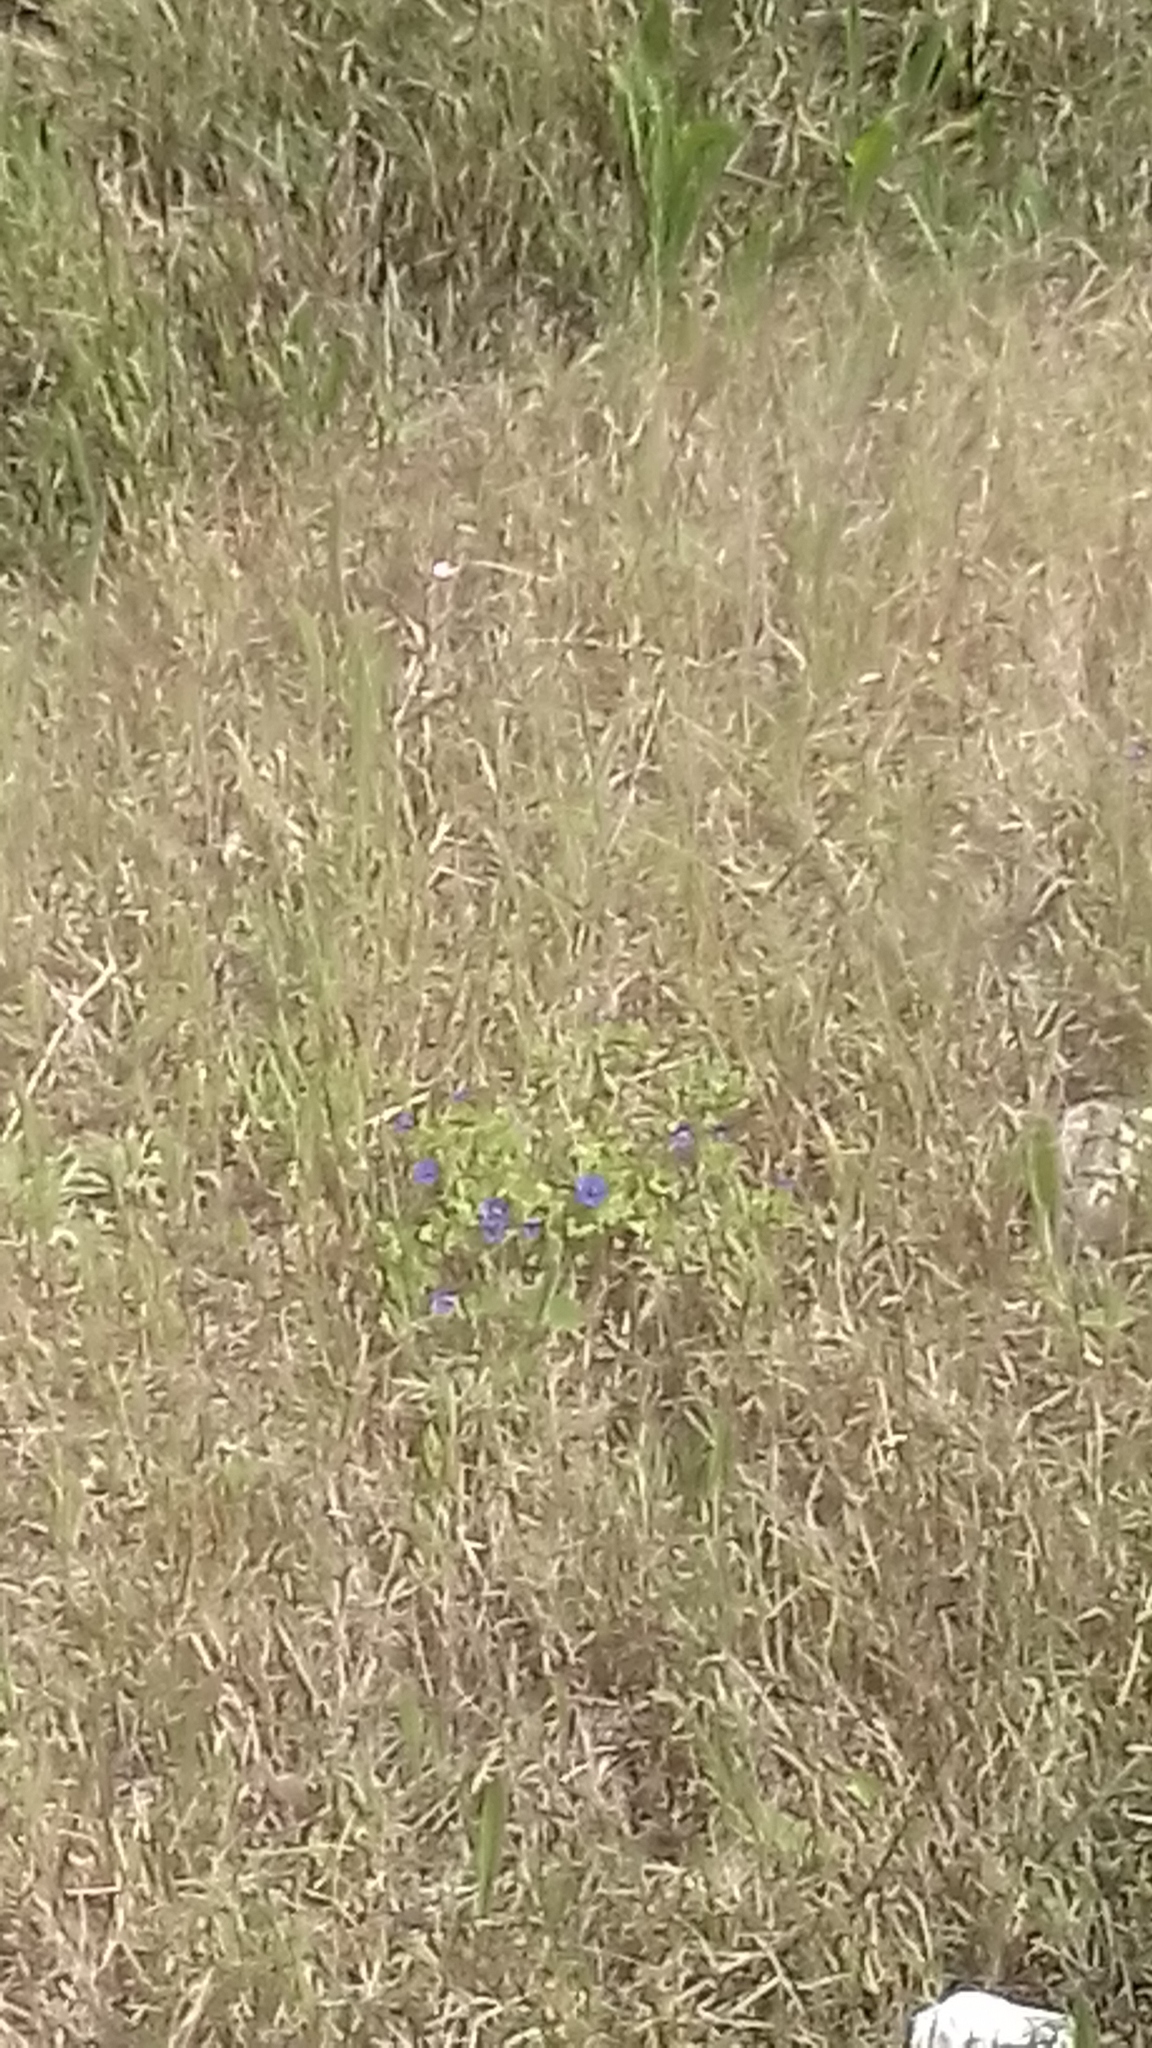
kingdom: Plantae
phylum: Tracheophyta
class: Magnoliopsida
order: Ericales
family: Primulaceae
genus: Lysimachia
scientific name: Lysimachia loeflingii
